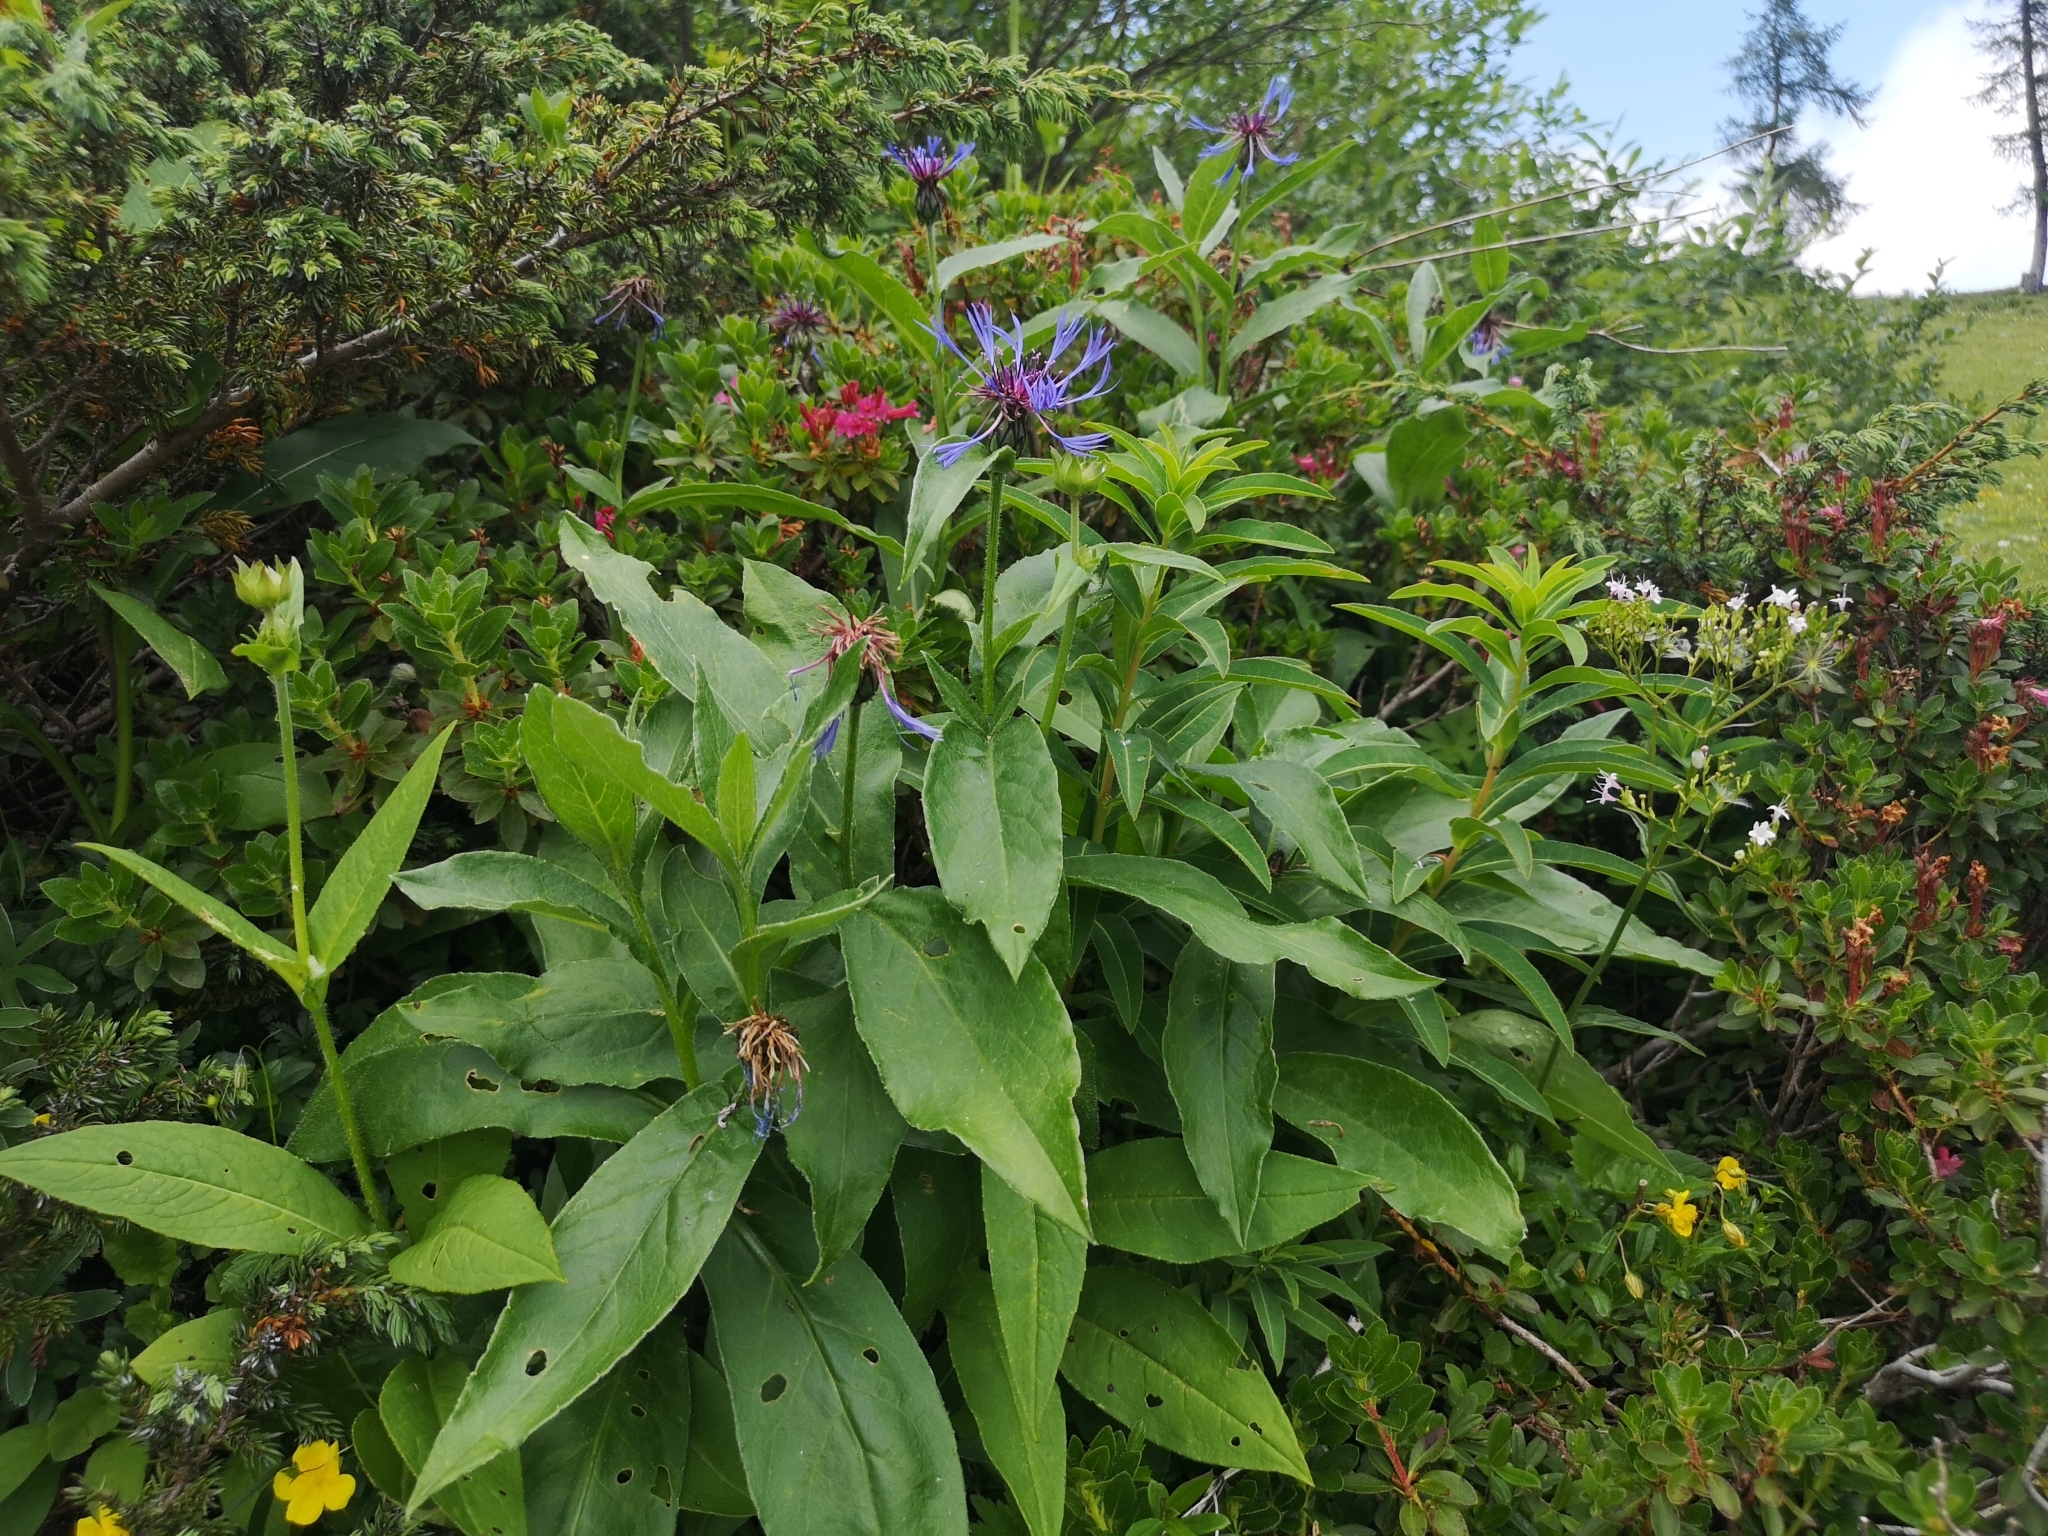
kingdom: Plantae
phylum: Tracheophyta
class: Magnoliopsida
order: Asterales
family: Asteraceae
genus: Centaurea
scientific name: Centaurea montana
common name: Perennial cornflower
